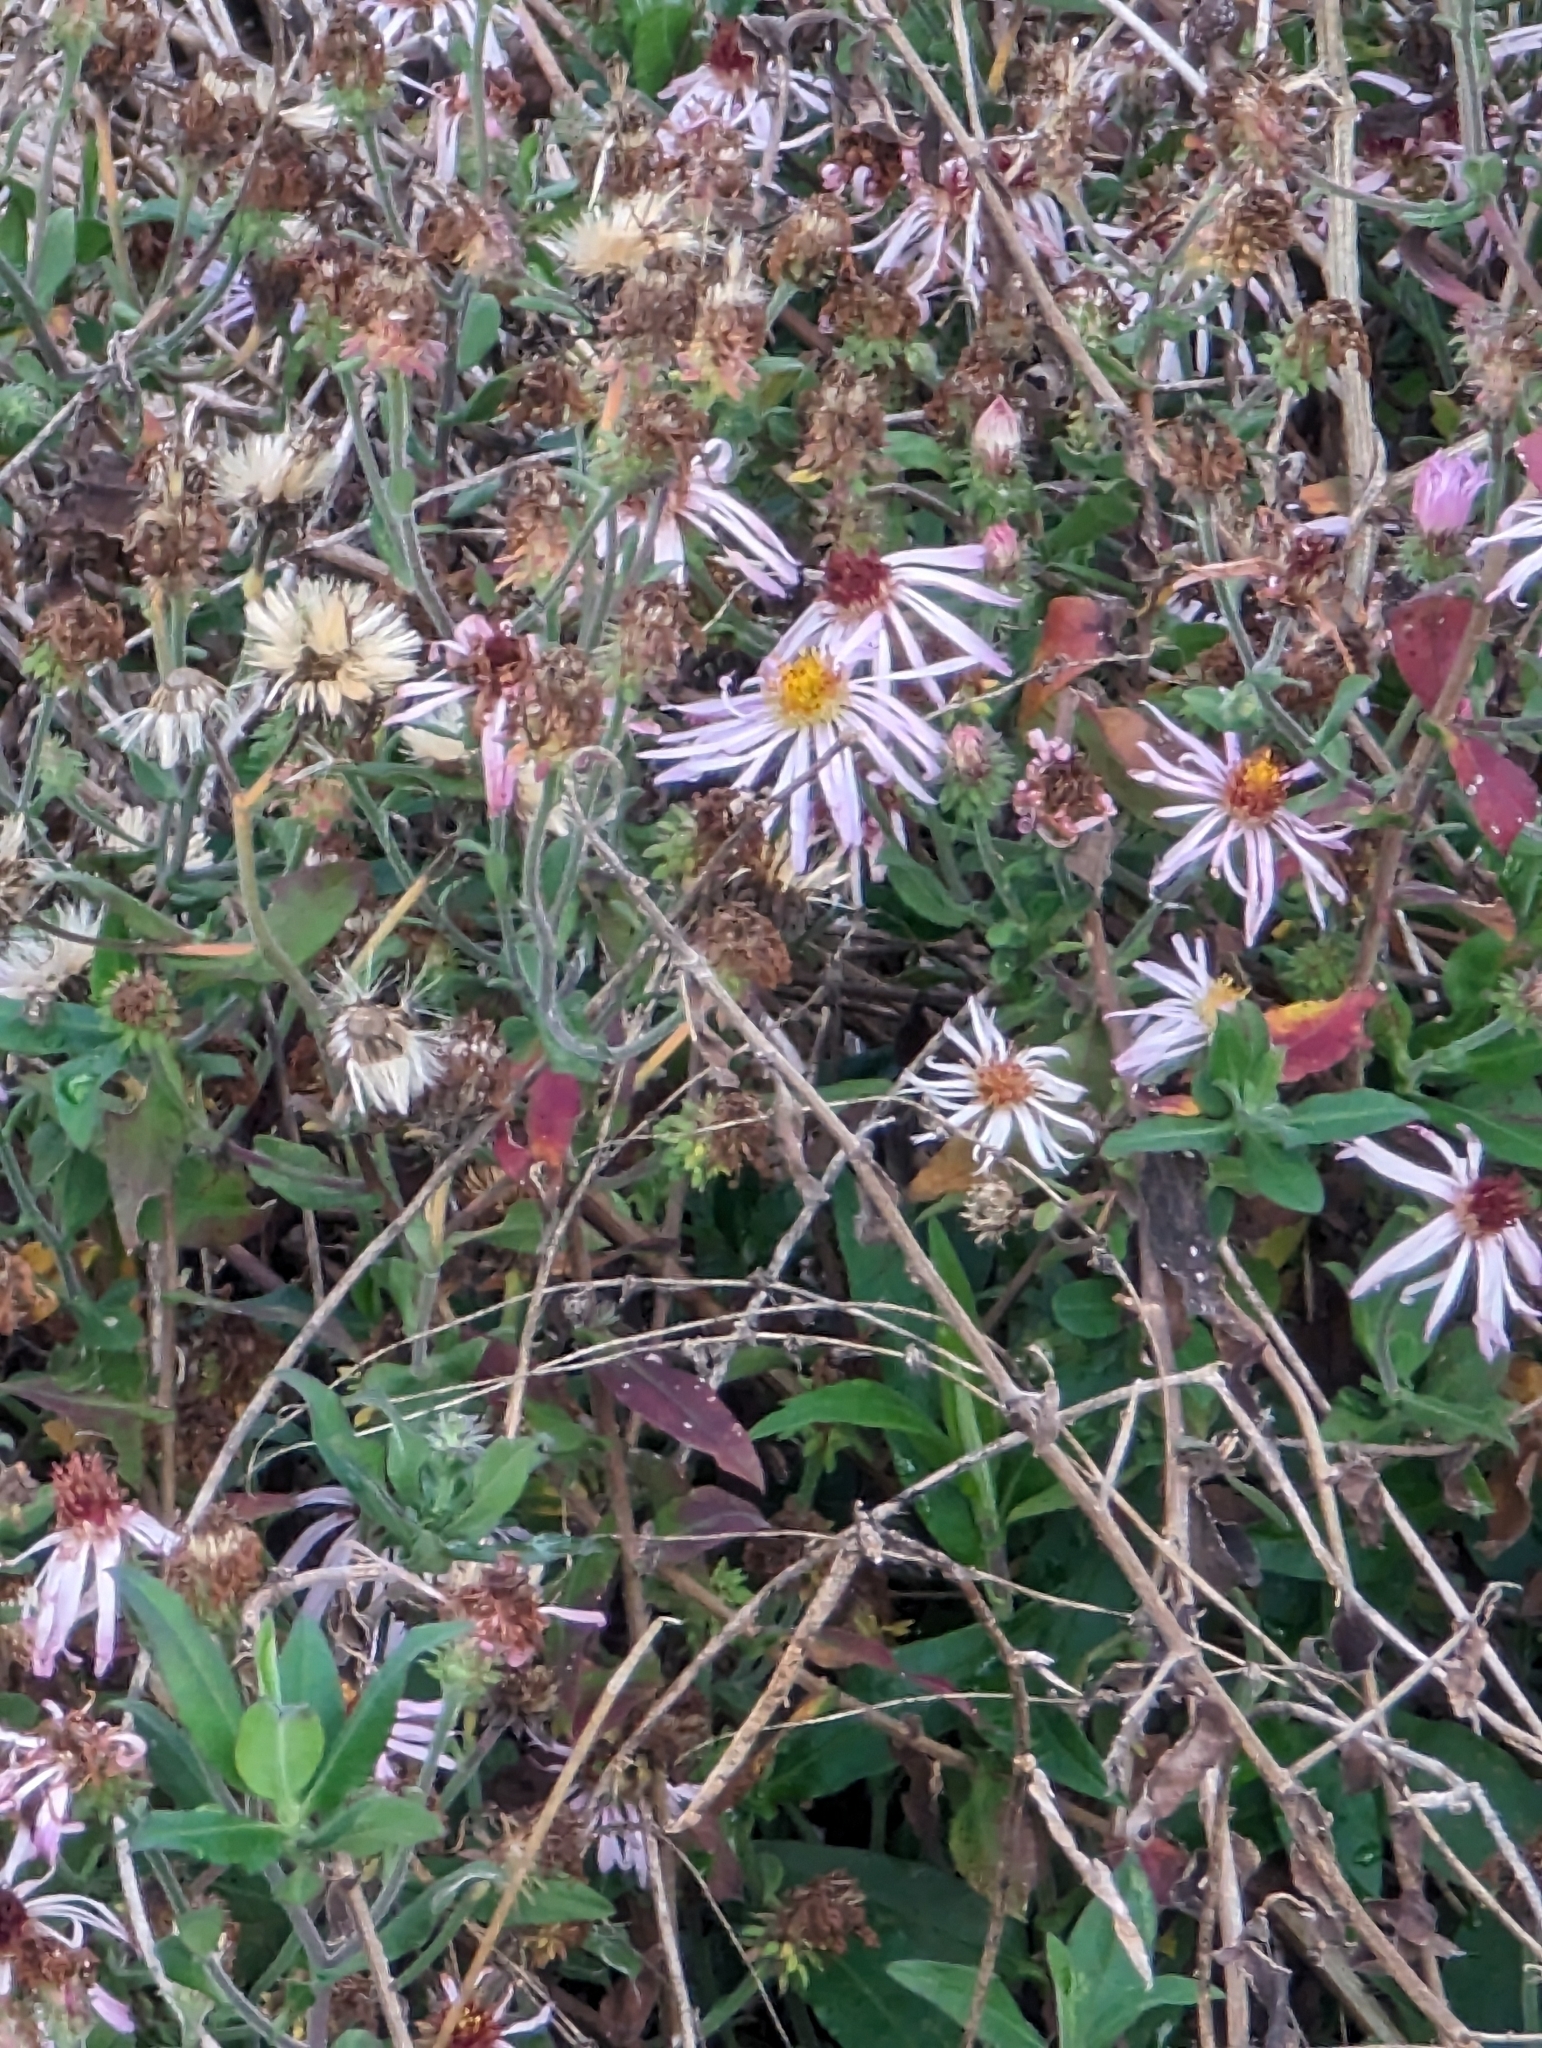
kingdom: Plantae
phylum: Tracheophyta
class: Magnoliopsida
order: Asterales
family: Asteraceae
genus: Ampelaster
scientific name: Ampelaster carolinianus
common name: Climbing aster
